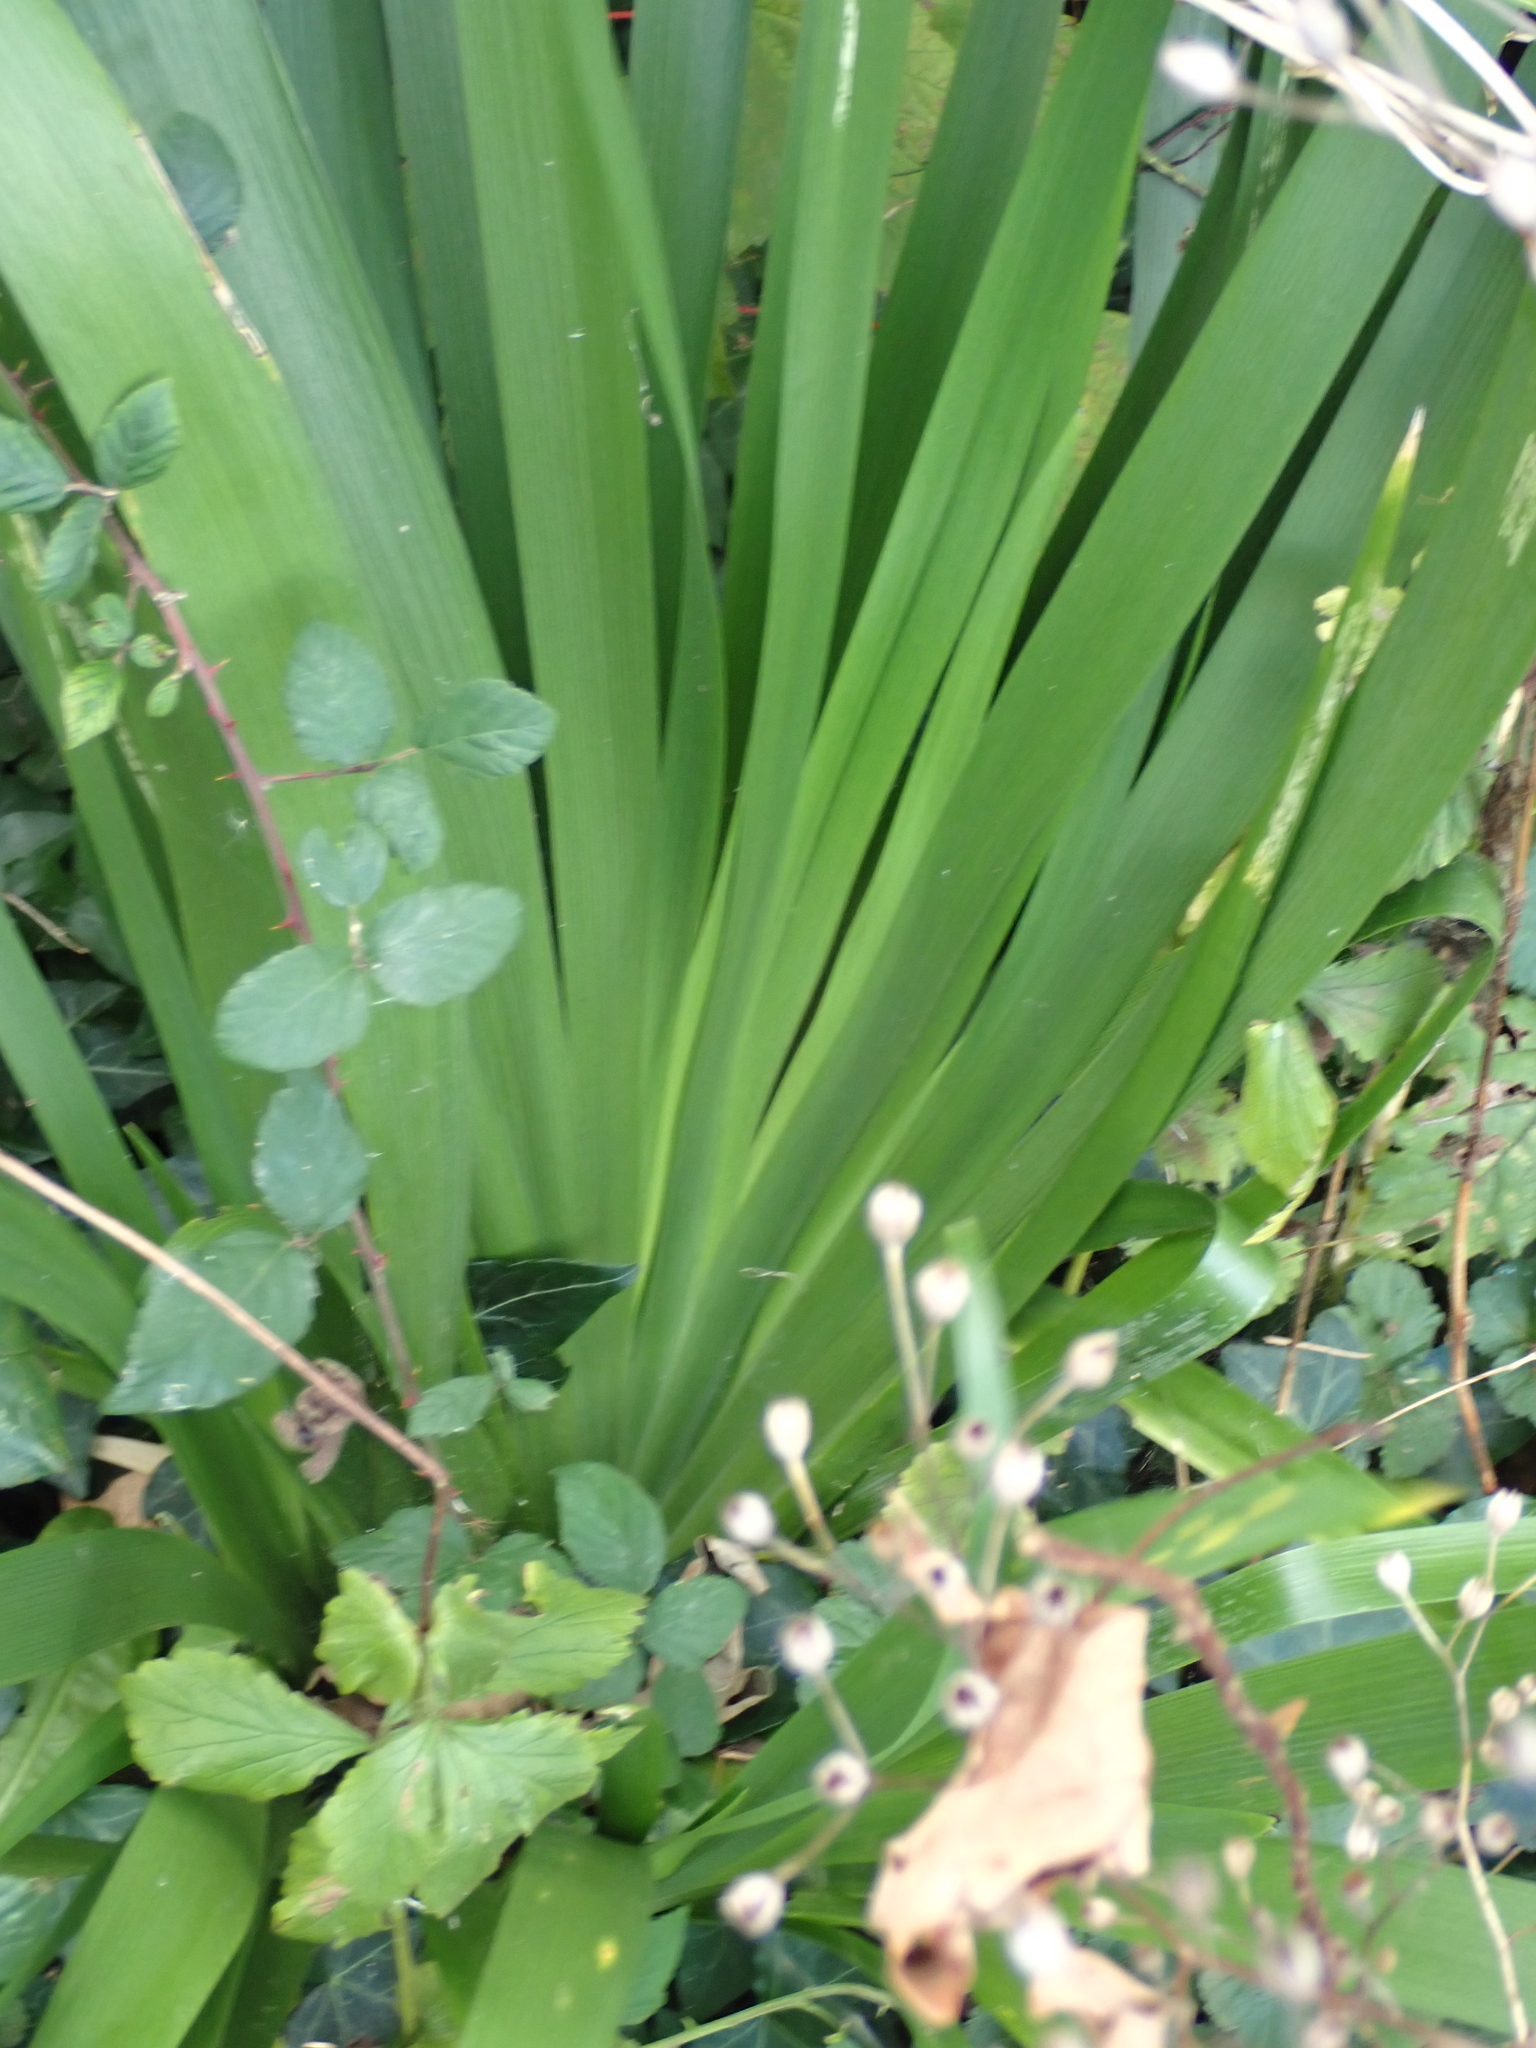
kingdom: Plantae
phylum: Tracheophyta
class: Liliopsida
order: Asparagales
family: Iridaceae
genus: Iris
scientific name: Iris foetidissima
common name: Stinking iris
